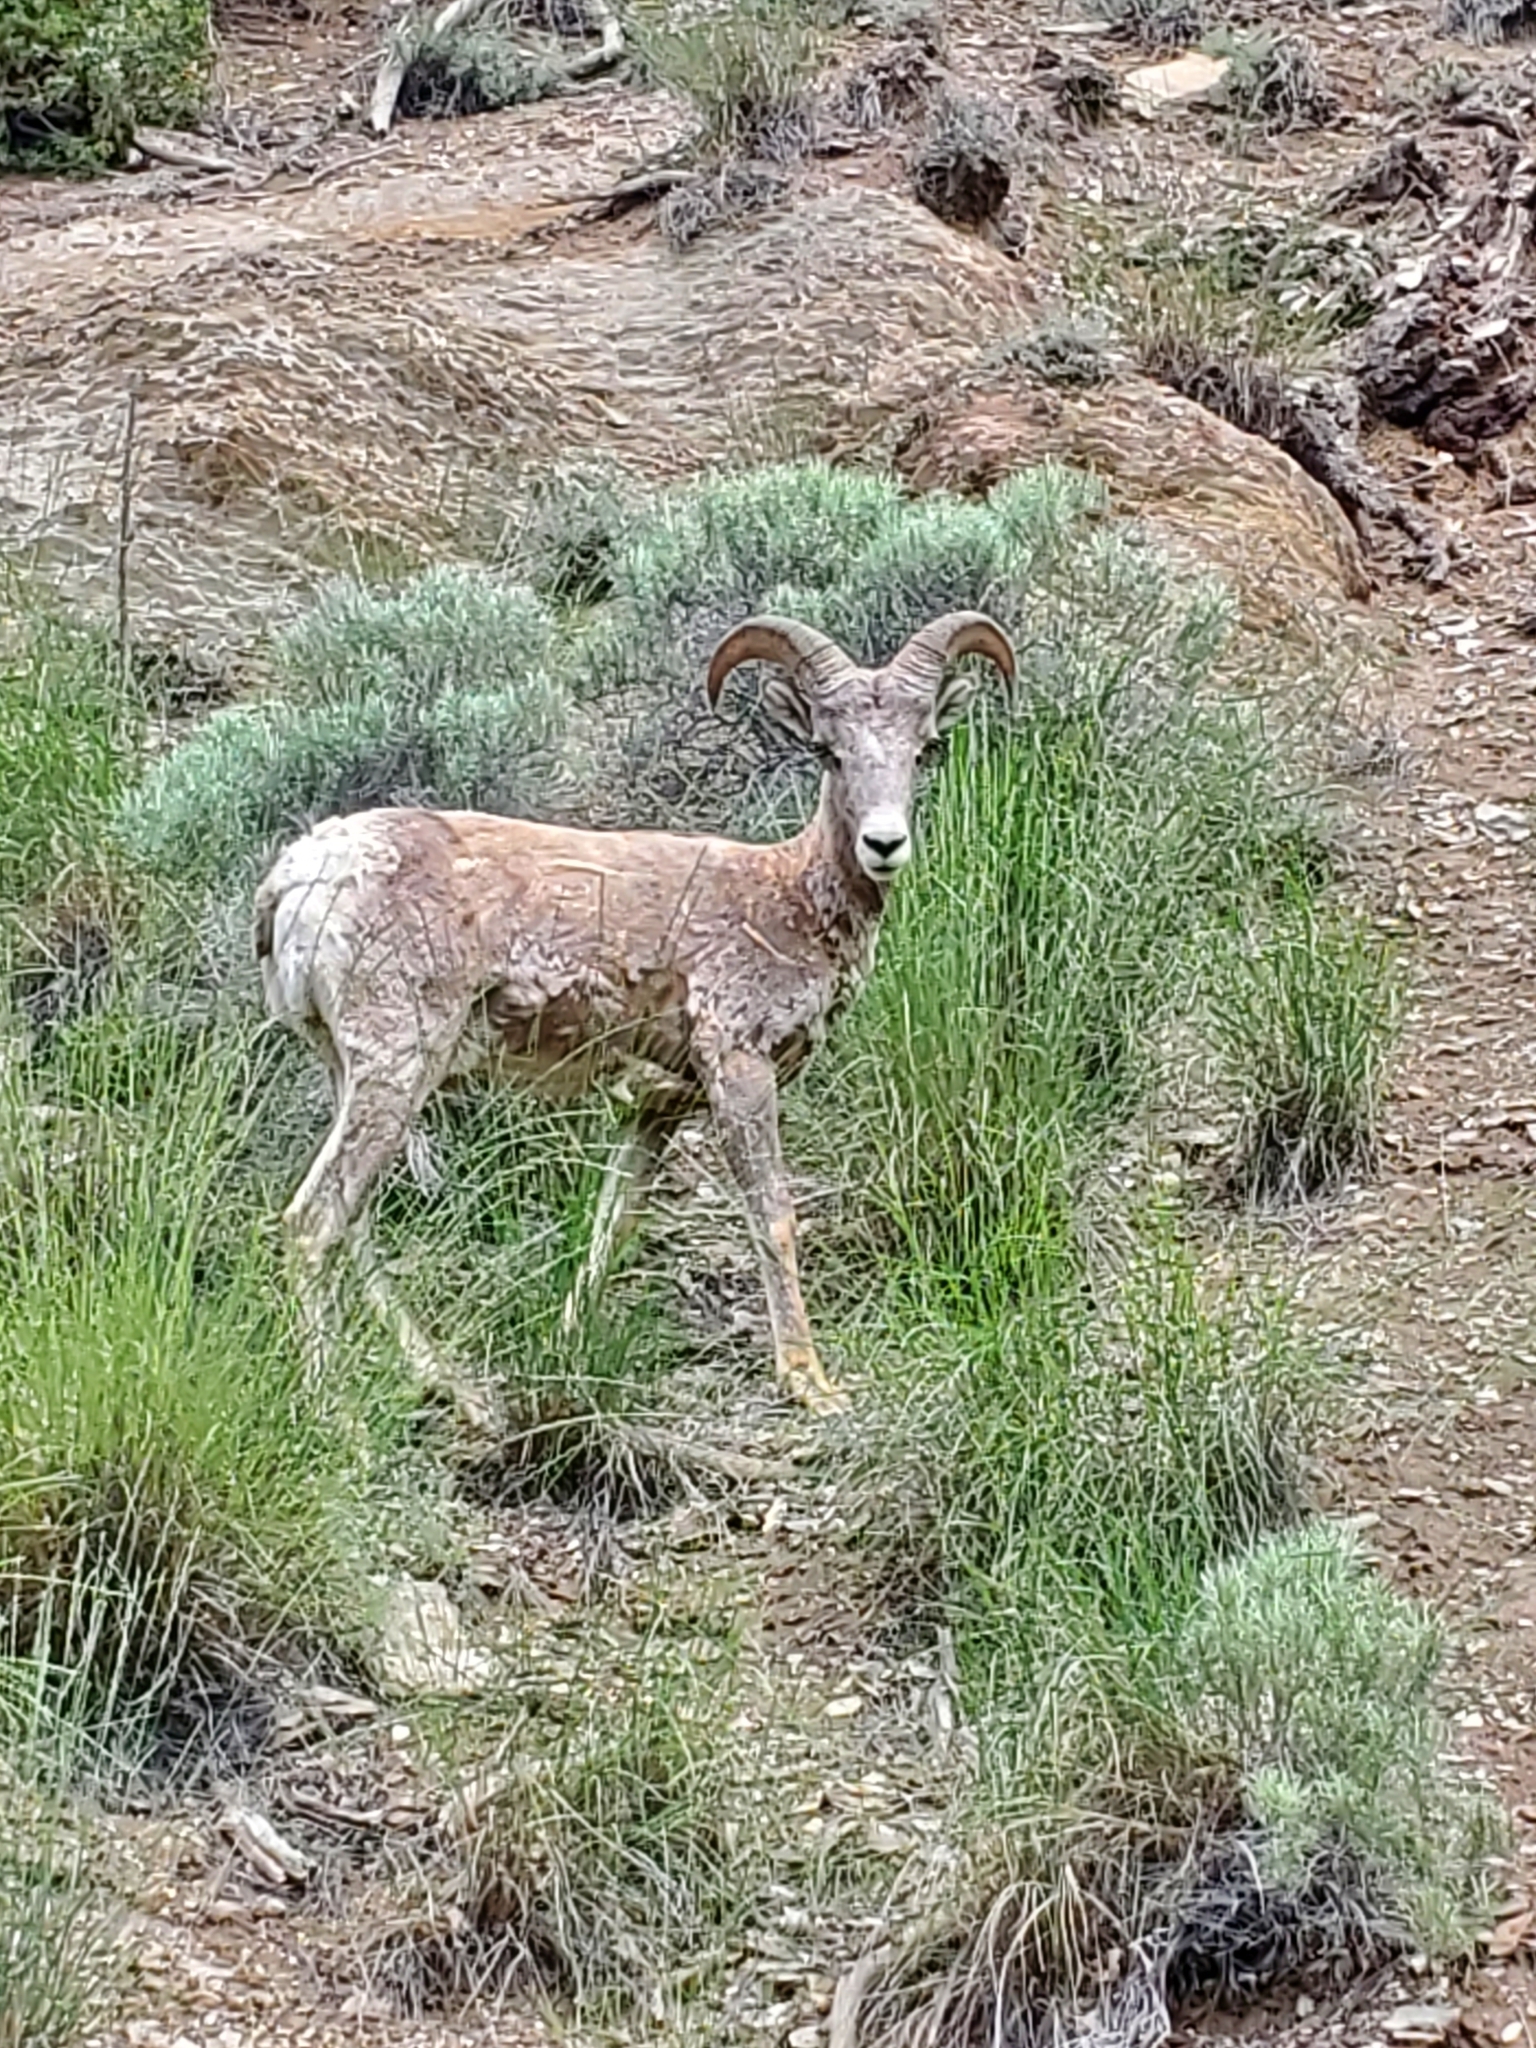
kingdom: Animalia
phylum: Chordata
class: Mammalia
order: Artiodactyla
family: Bovidae
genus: Ovis
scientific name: Ovis canadensis
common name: Bighorn sheep
